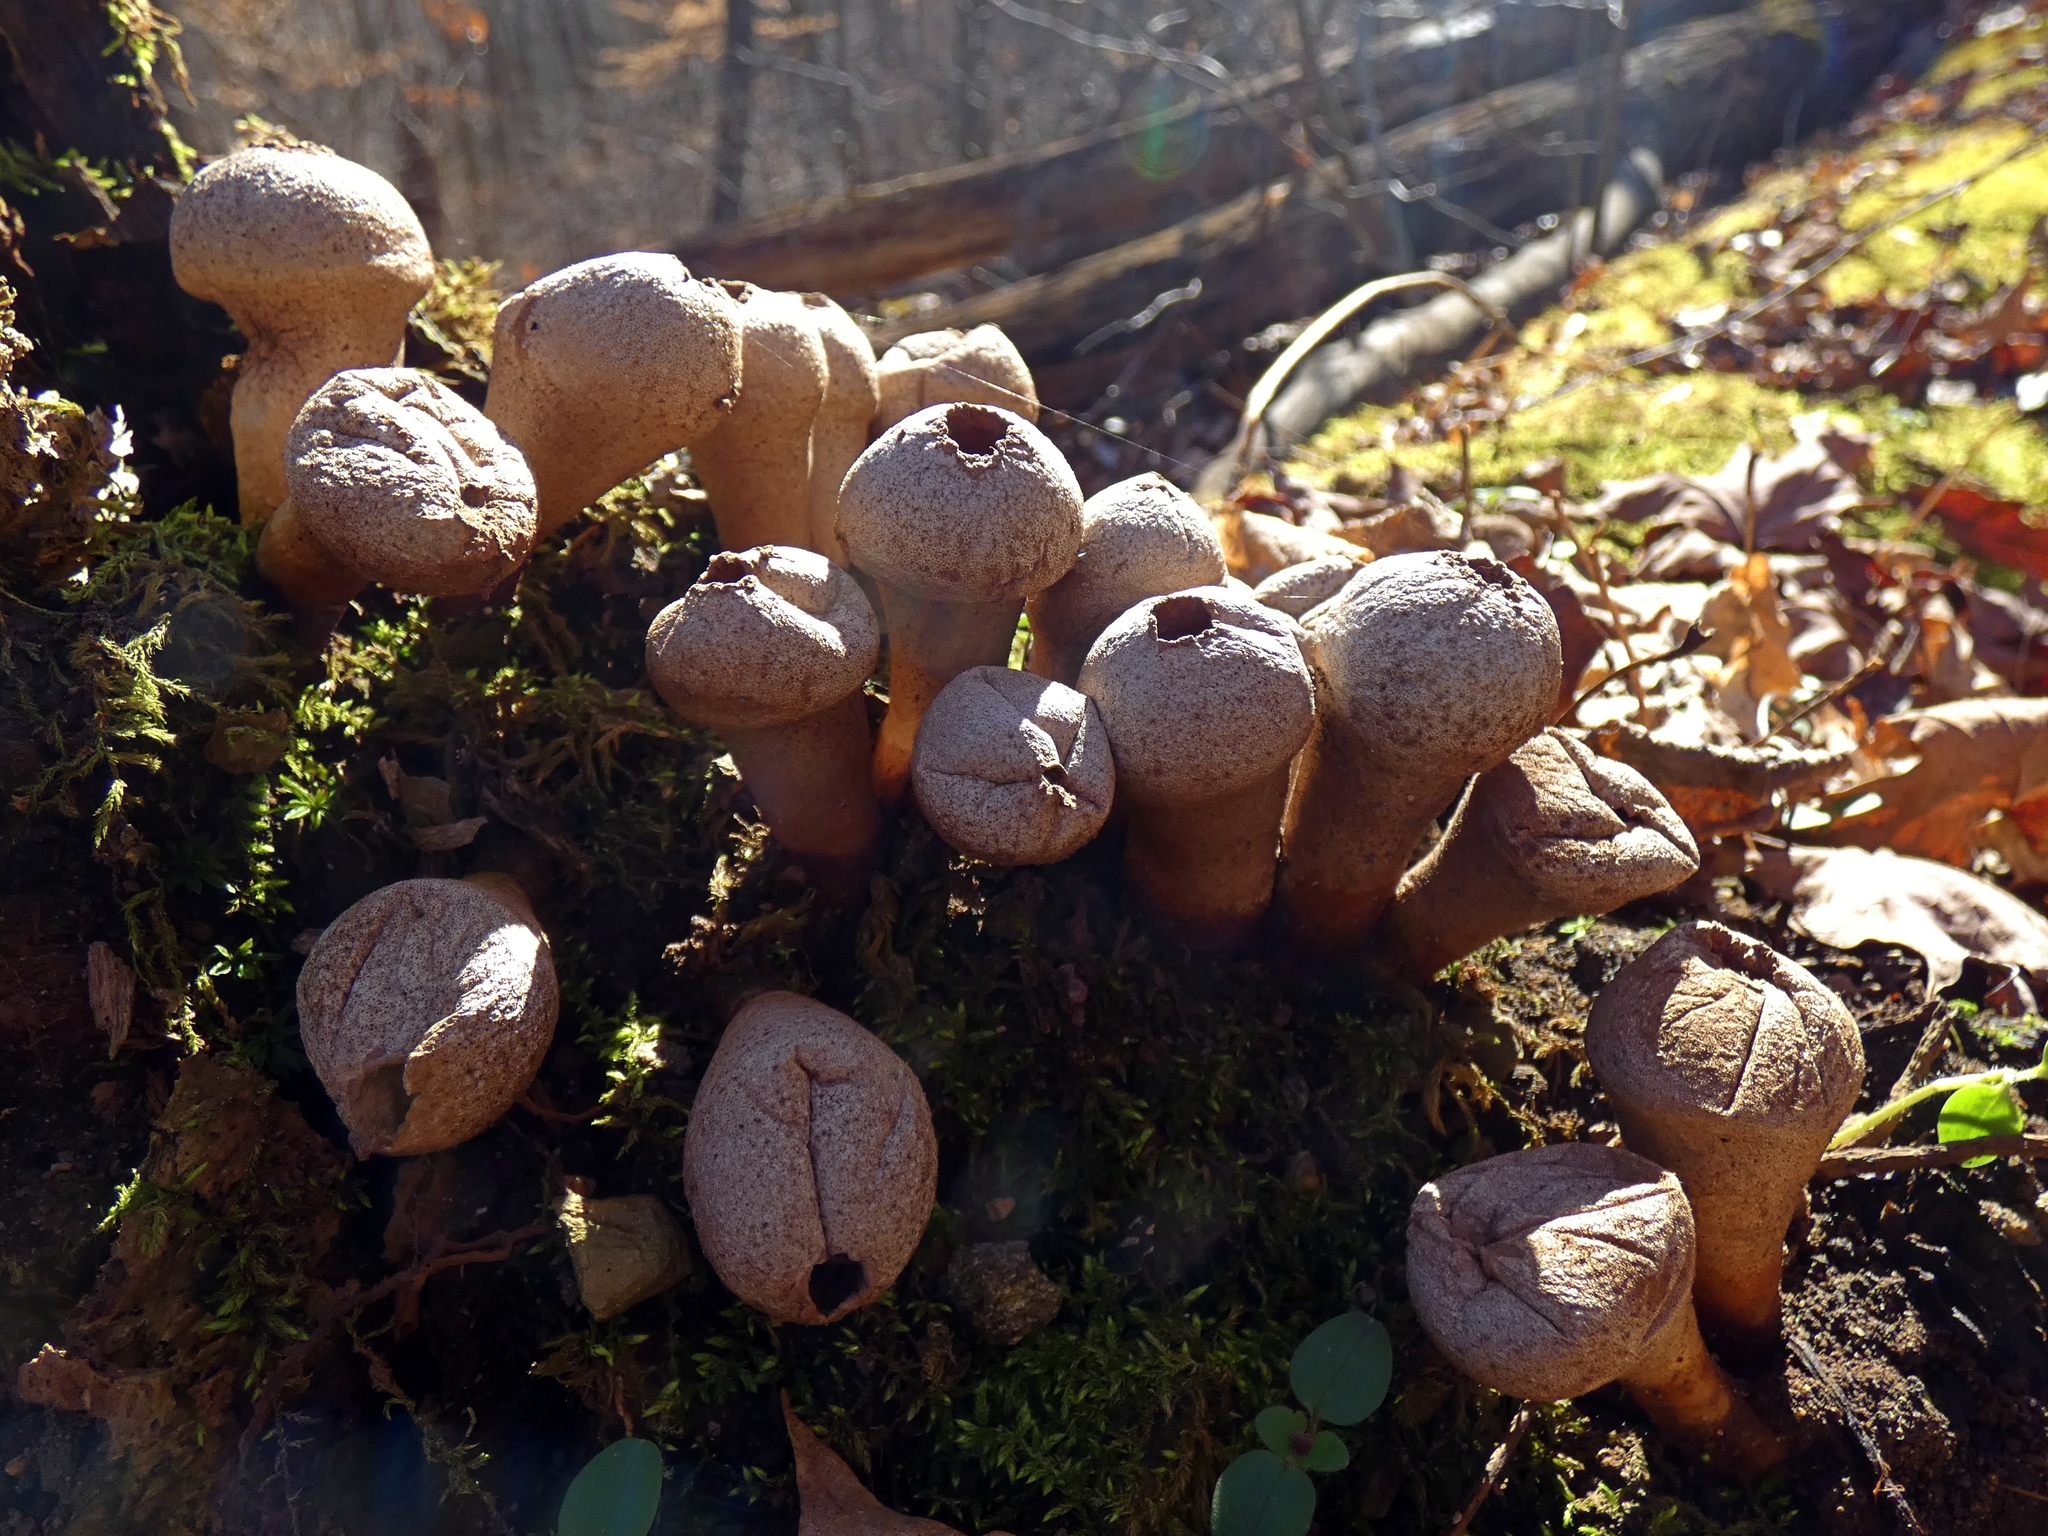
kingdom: Fungi
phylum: Basidiomycota
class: Agaricomycetes
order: Agaricales
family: Lycoperdaceae
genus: Apioperdon
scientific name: Apioperdon pyriforme
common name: Pear-shaped puffball
